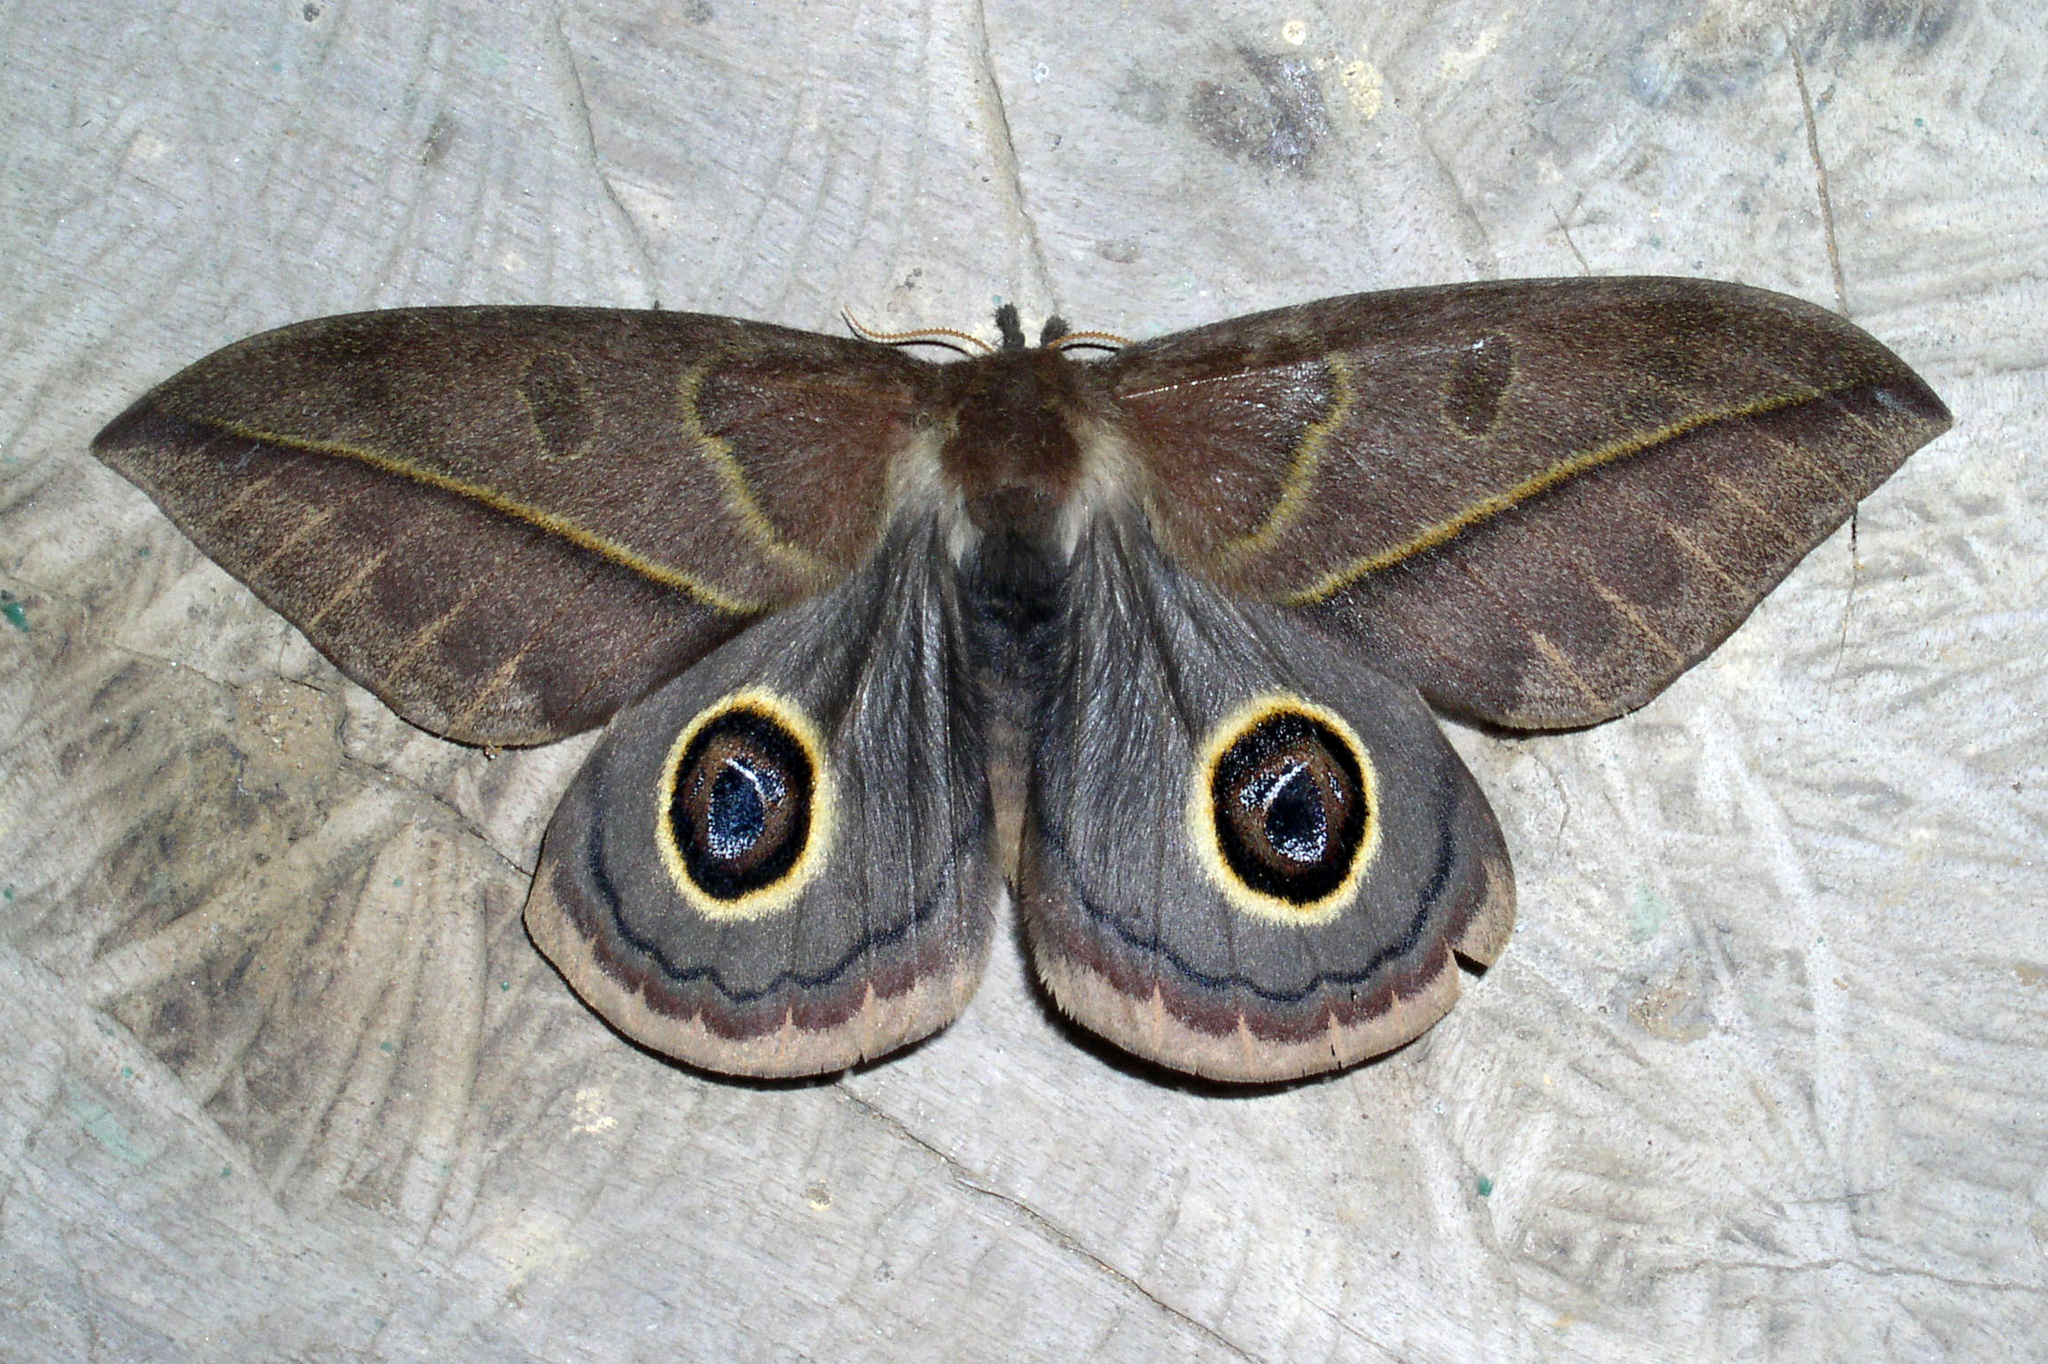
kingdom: Animalia
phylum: Arthropoda
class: Insecta
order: Lepidoptera
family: Saturniidae
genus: Leucanella
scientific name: Leucanella contempta
